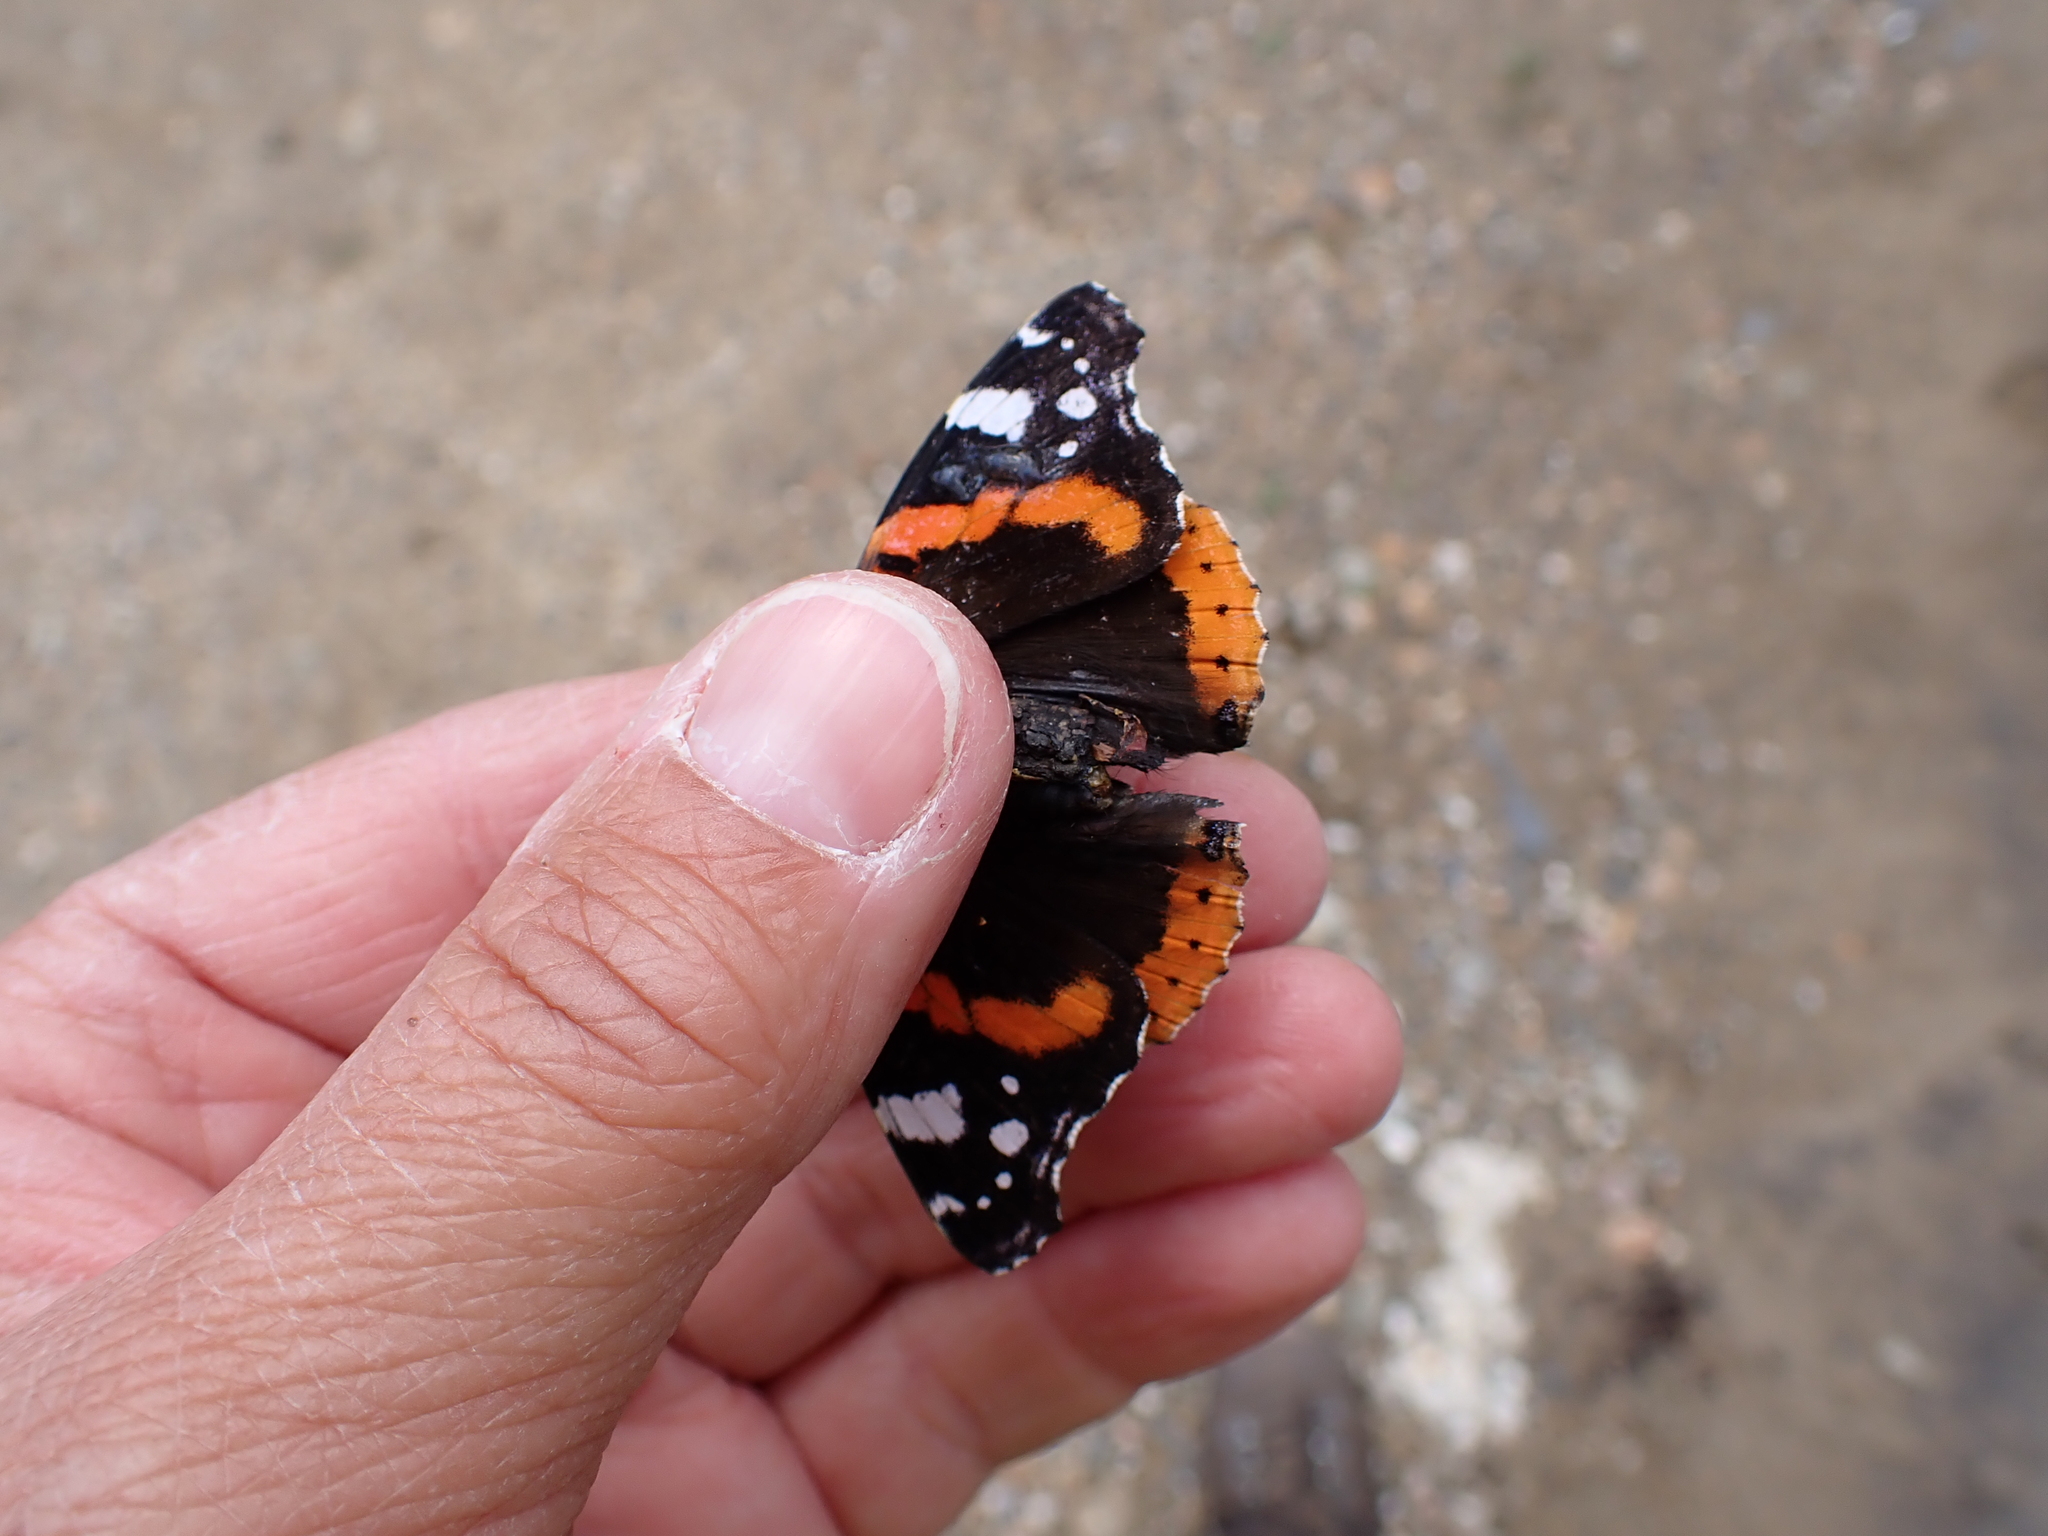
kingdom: Animalia
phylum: Arthropoda
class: Insecta
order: Lepidoptera
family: Nymphalidae
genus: Vanessa
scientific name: Vanessa atalanta
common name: Red admiral
